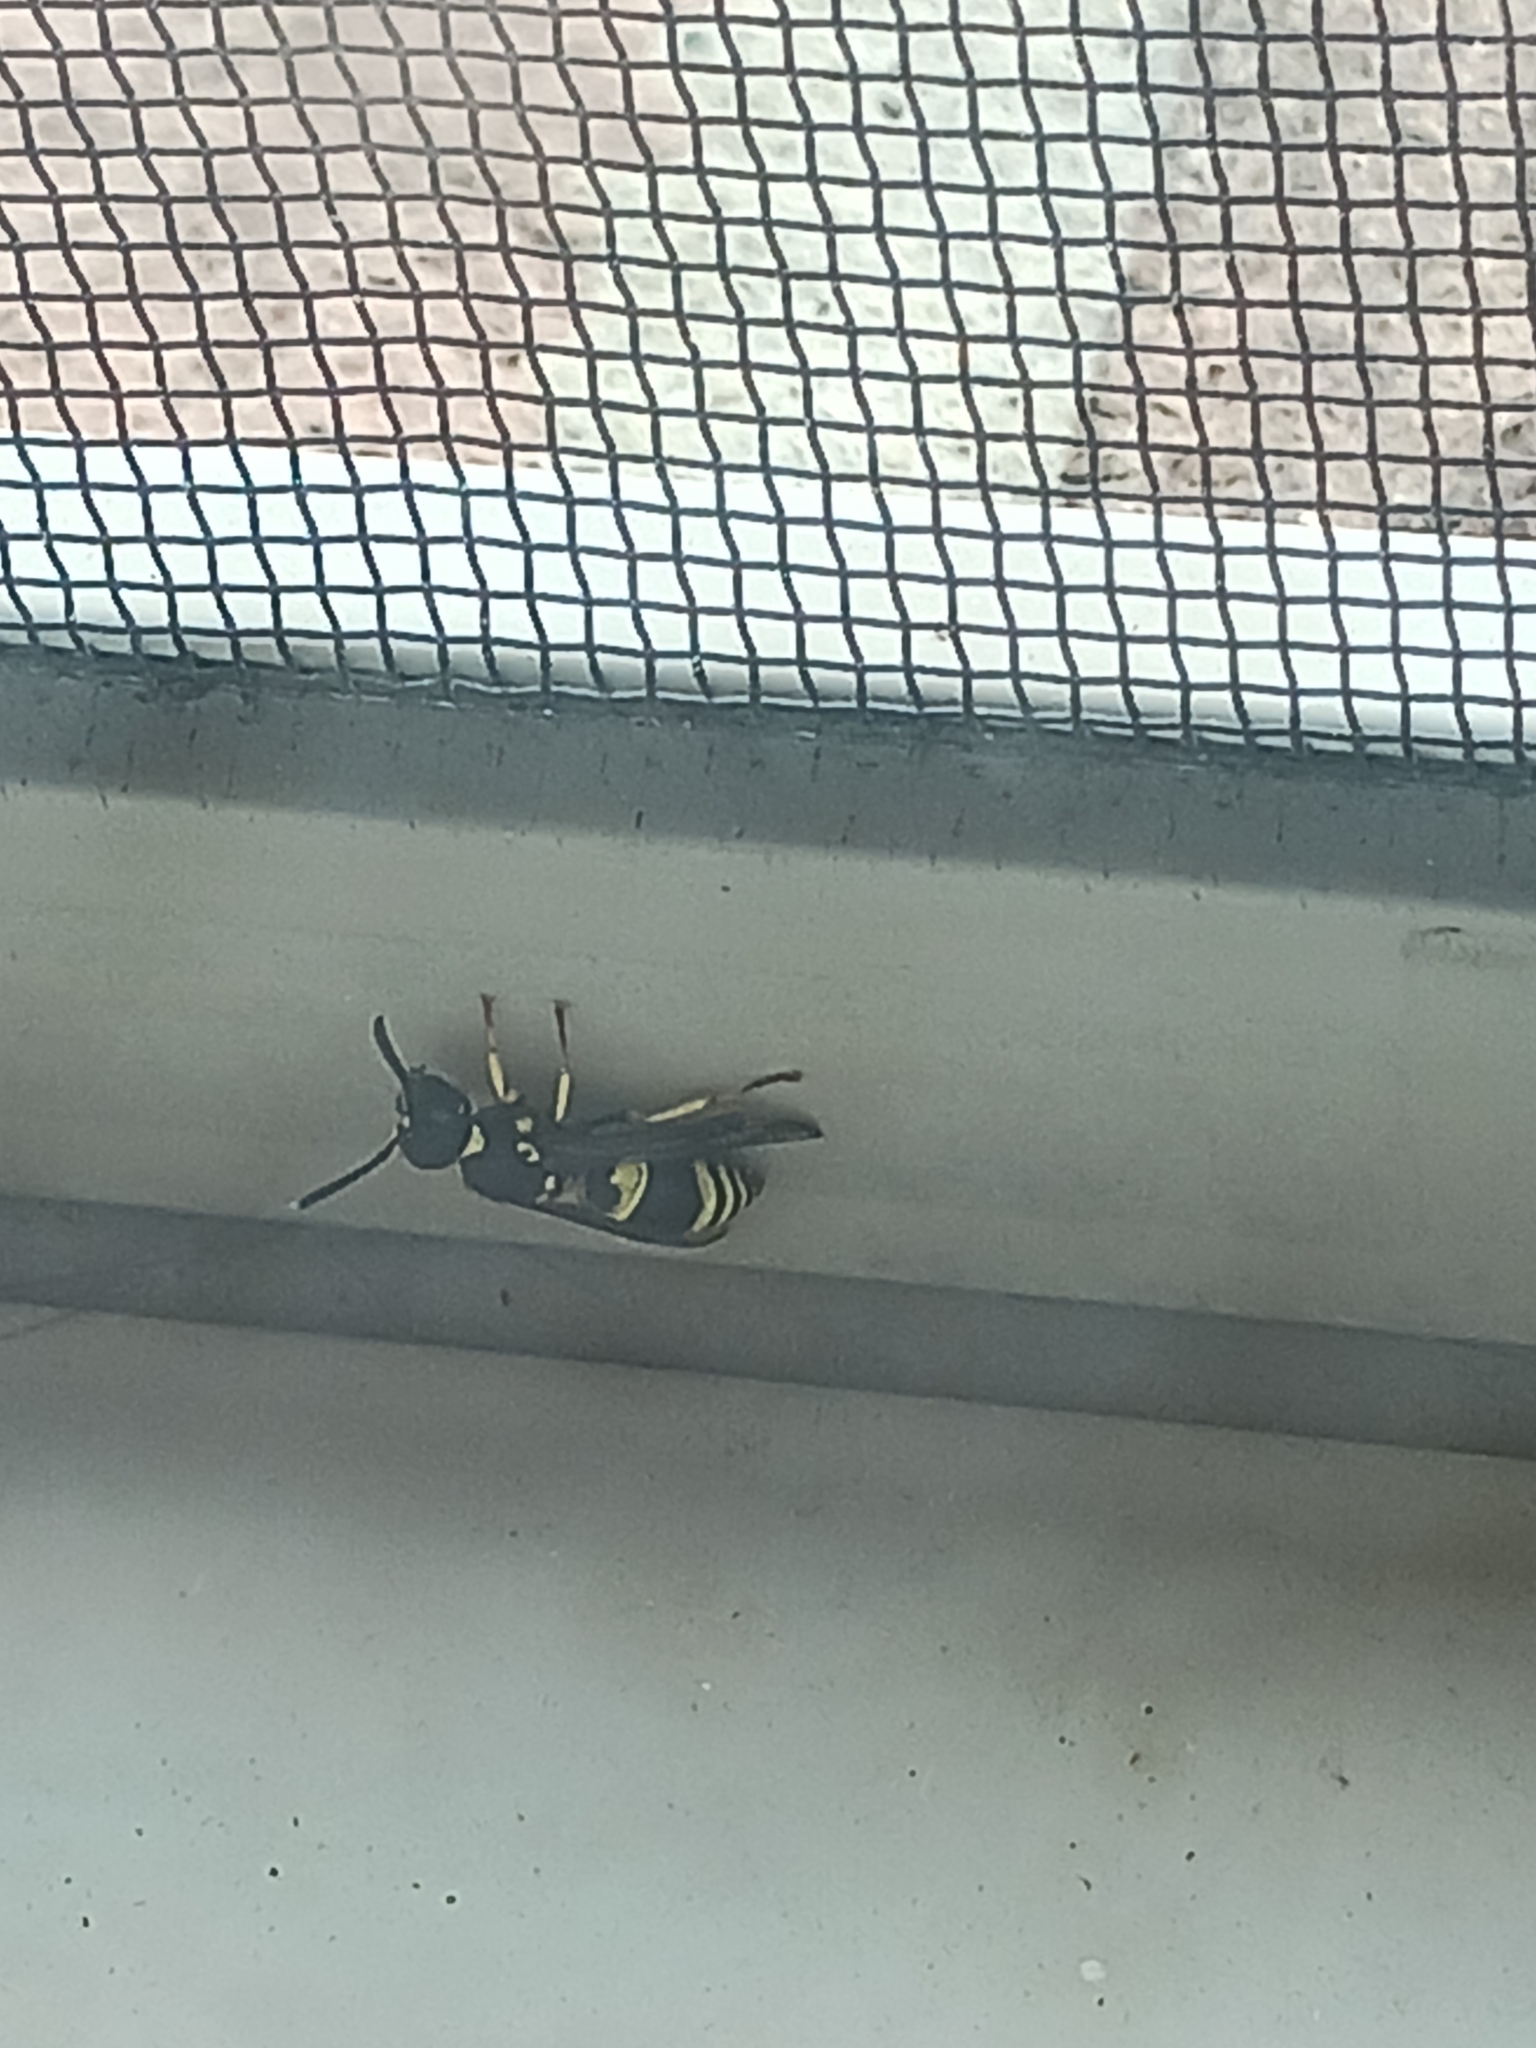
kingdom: Animalia
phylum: Arthropoda
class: Insecta
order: Hymenoptera
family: Vespidae
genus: Ancistrocerus
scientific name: Ancistrocerus
